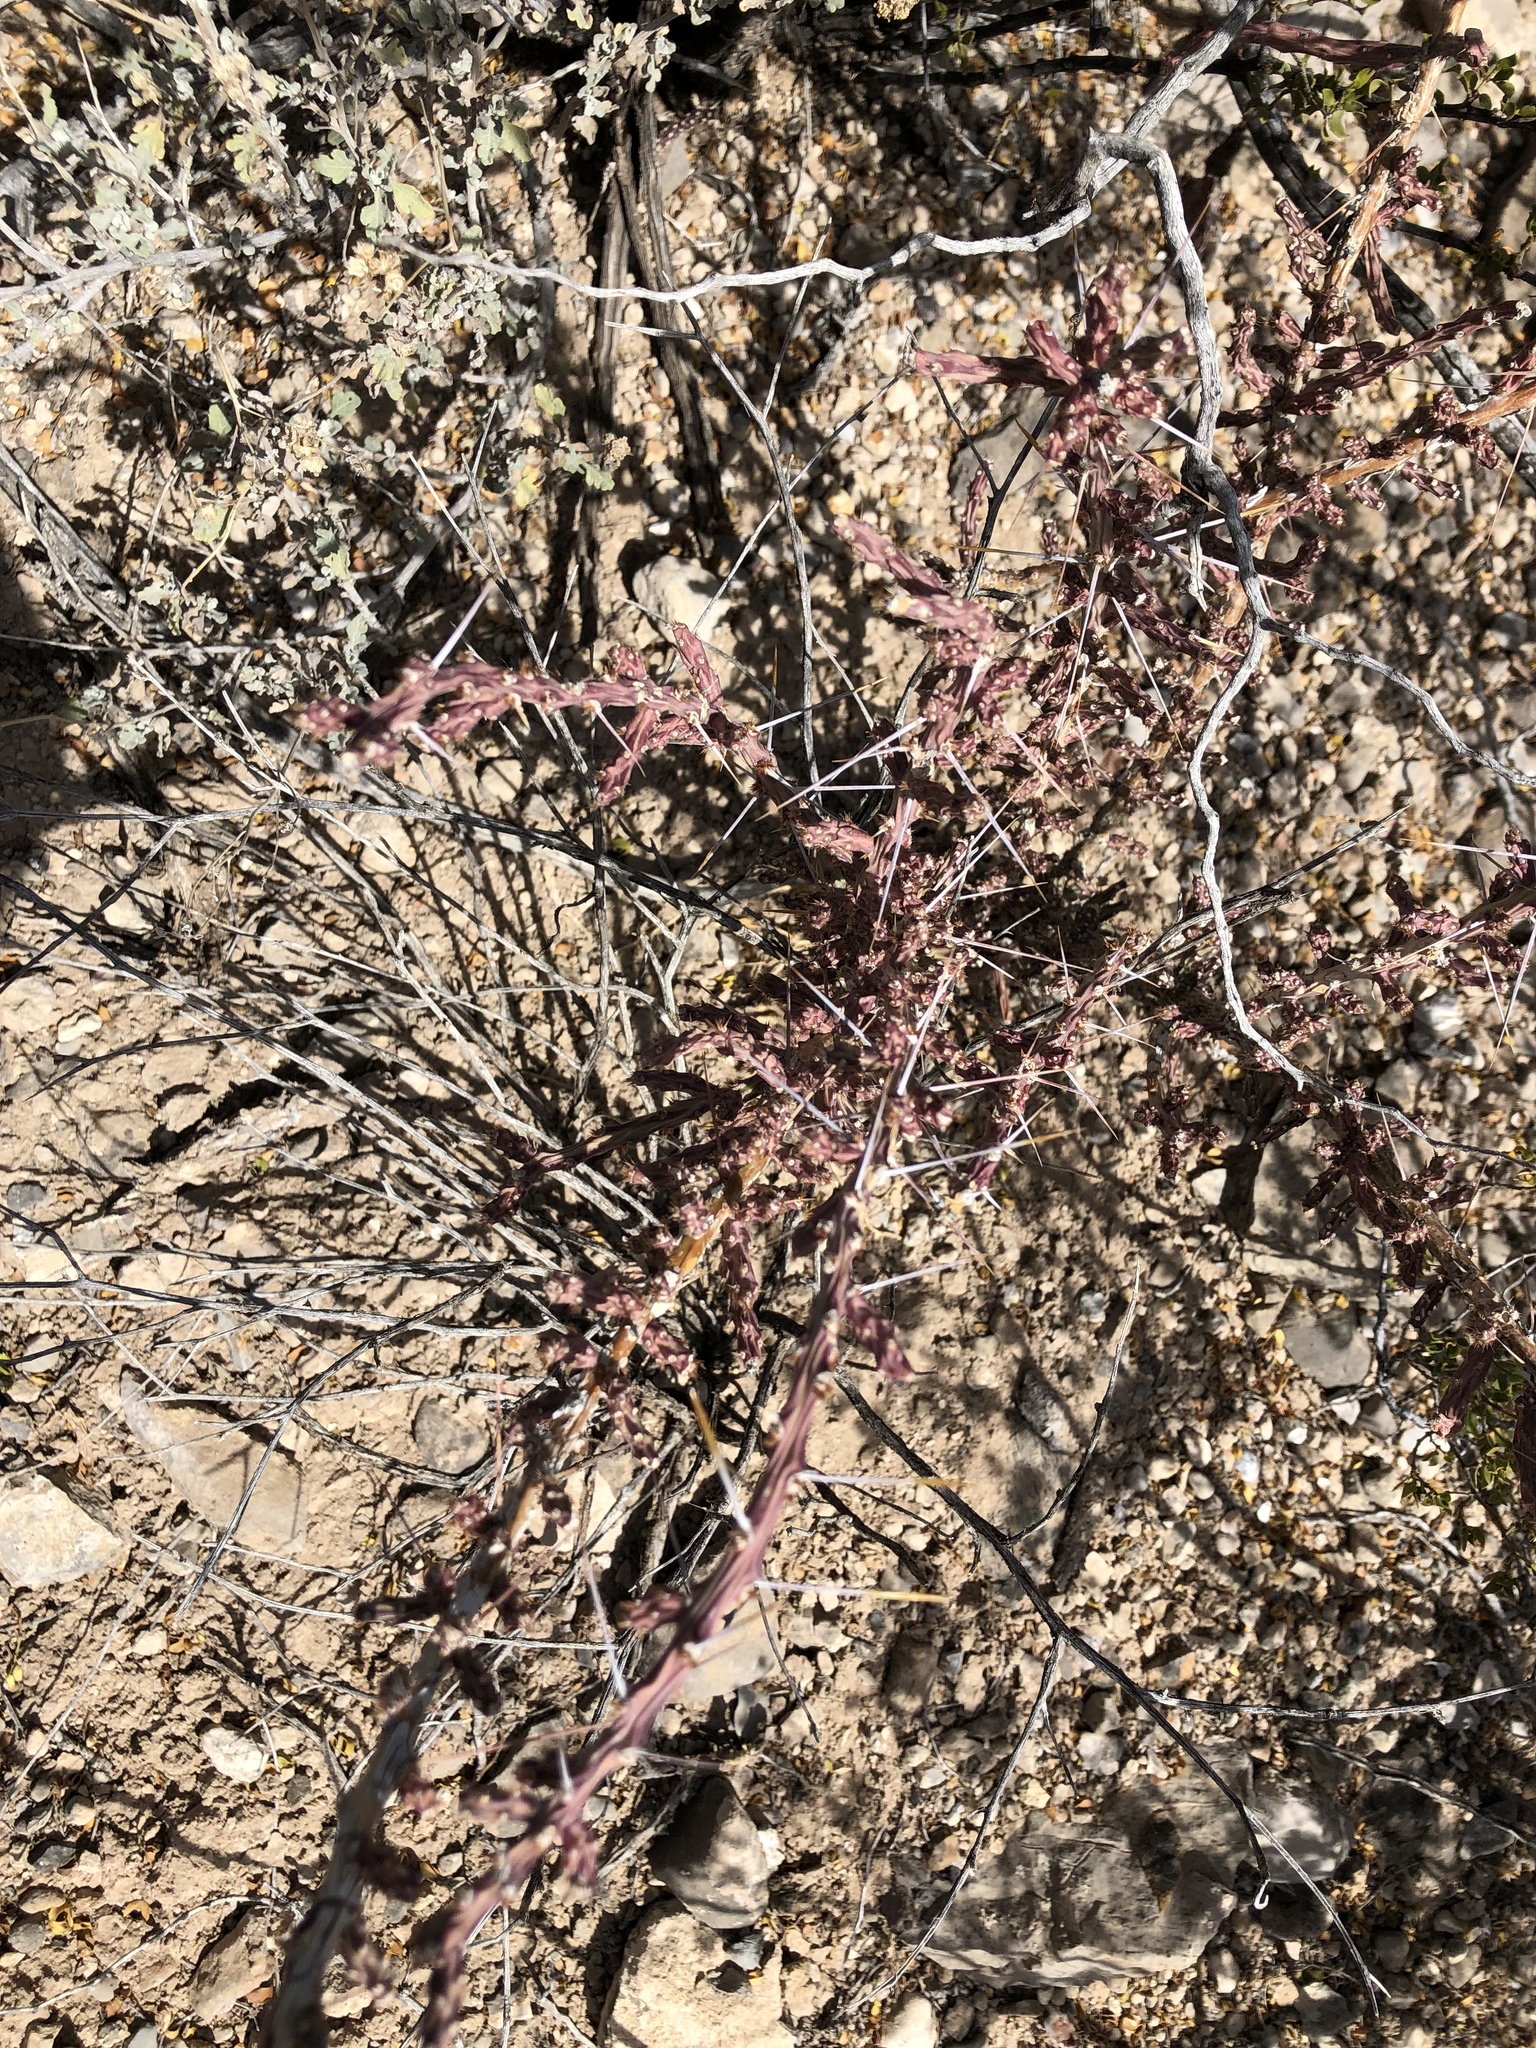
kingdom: Plantae
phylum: Tracheophyta
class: Magnoliopsida
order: Caryophyllales
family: Cactaceae
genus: Cylindropuntia
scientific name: Cylindropuntia leptocaulis
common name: Christmas cactus
